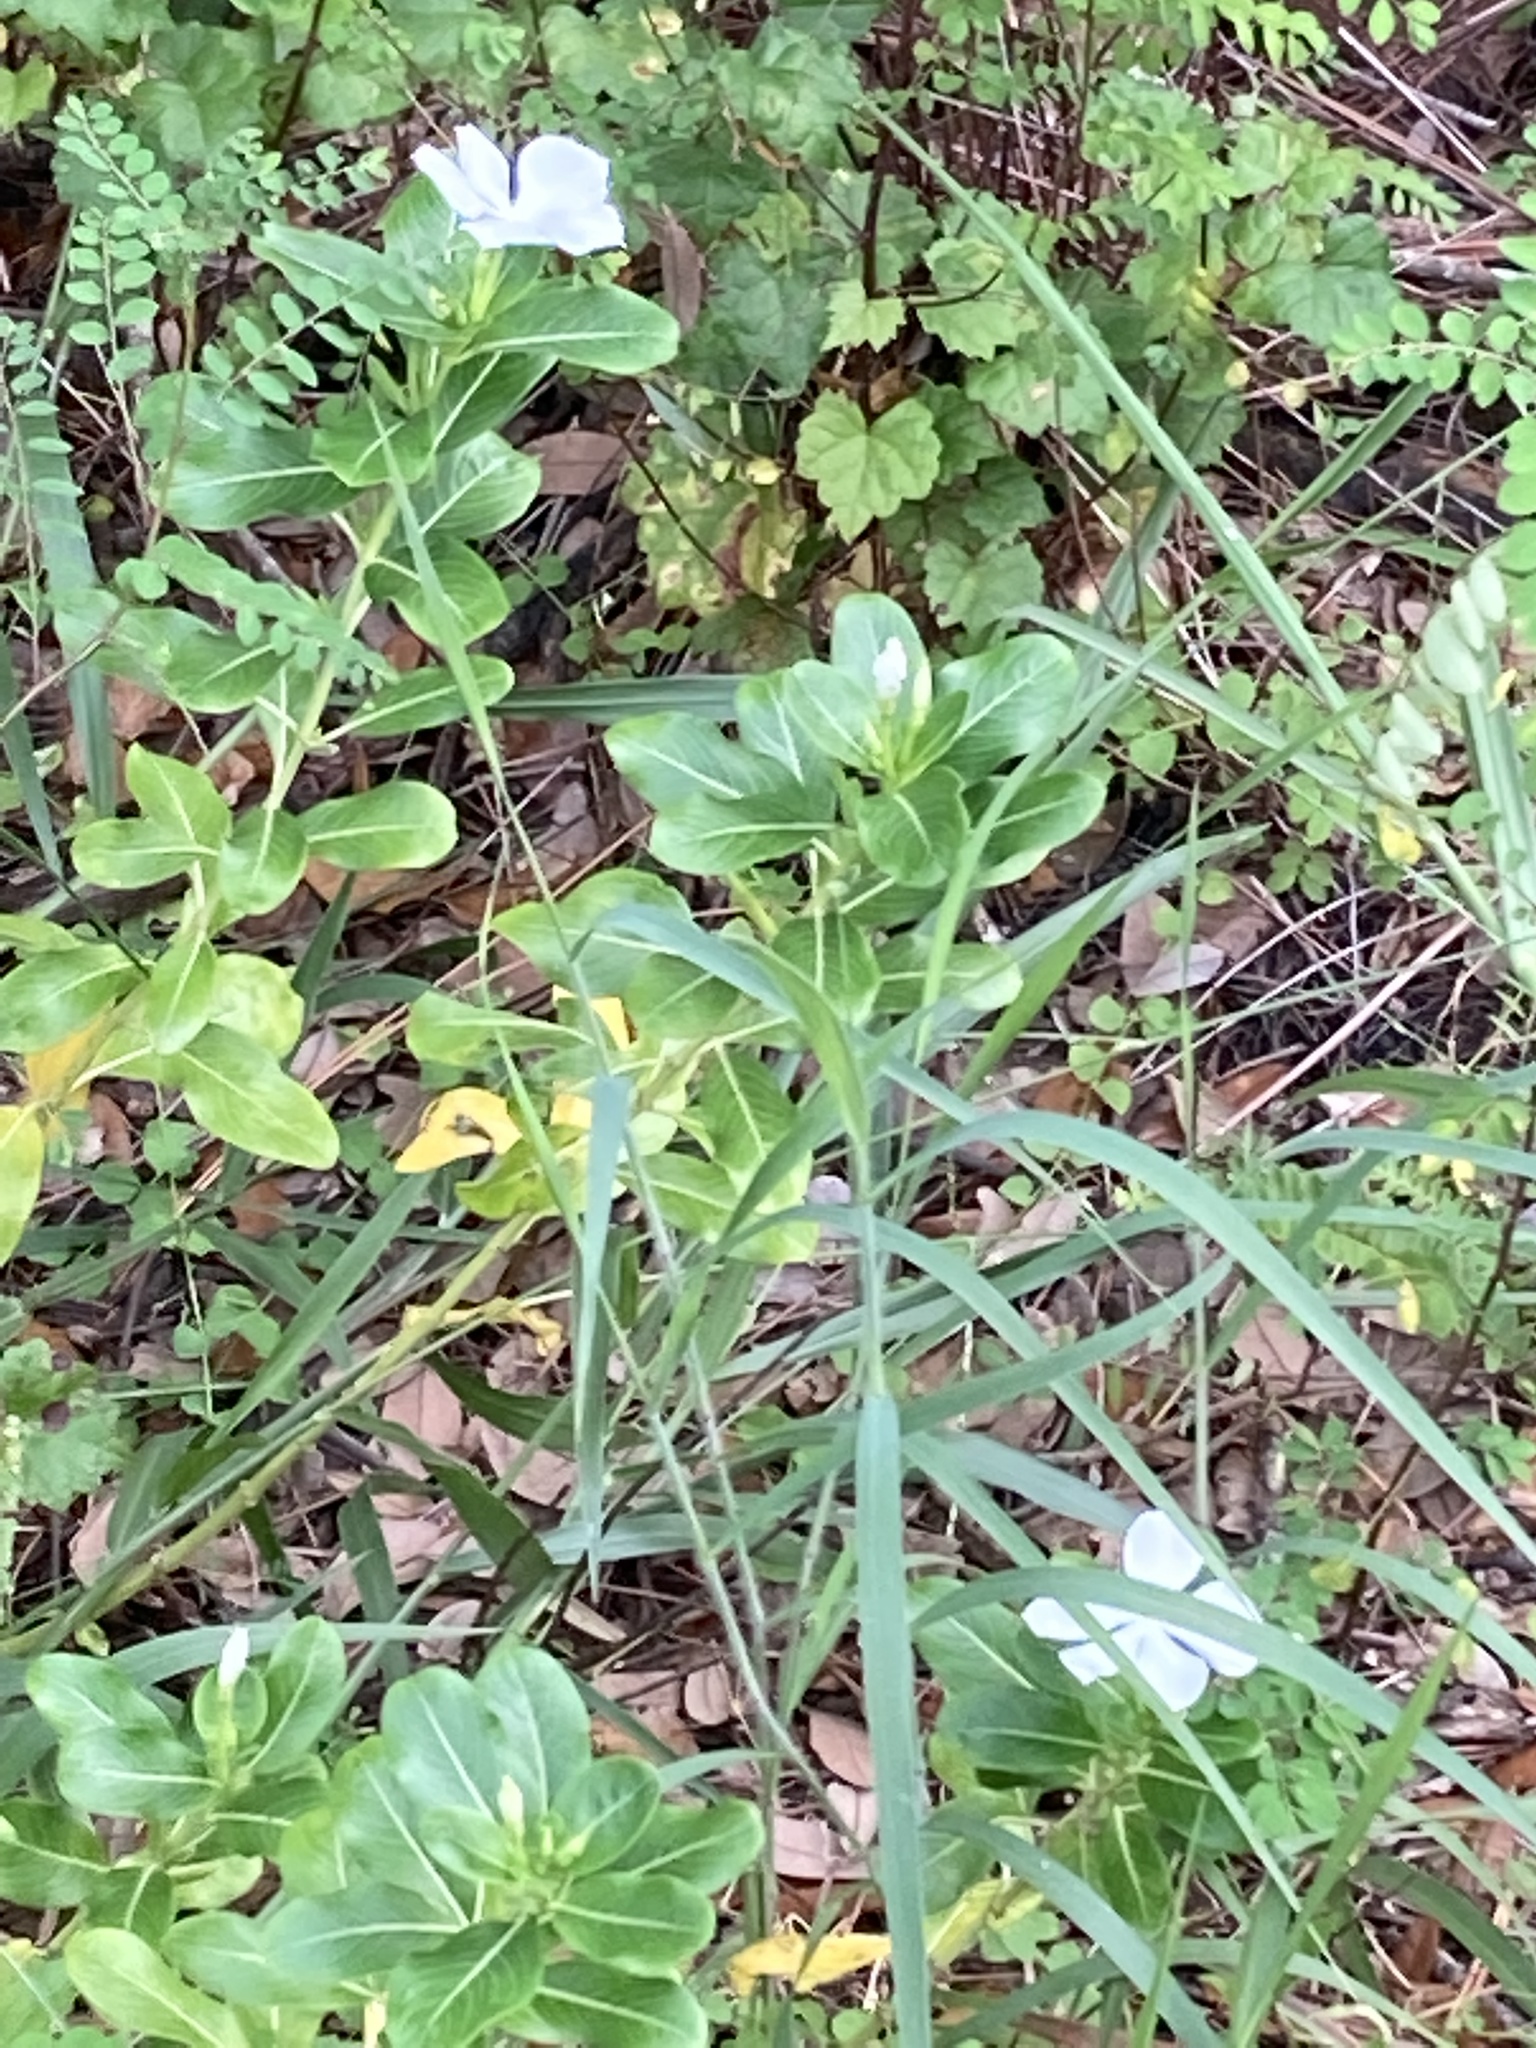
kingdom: Plantae
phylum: Tracheophyta
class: Magnoliopsida
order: Gentianales
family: Apocynaceae
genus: Catharanthus
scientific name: Catharanthus roseus
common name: Madagascar periwinkle
